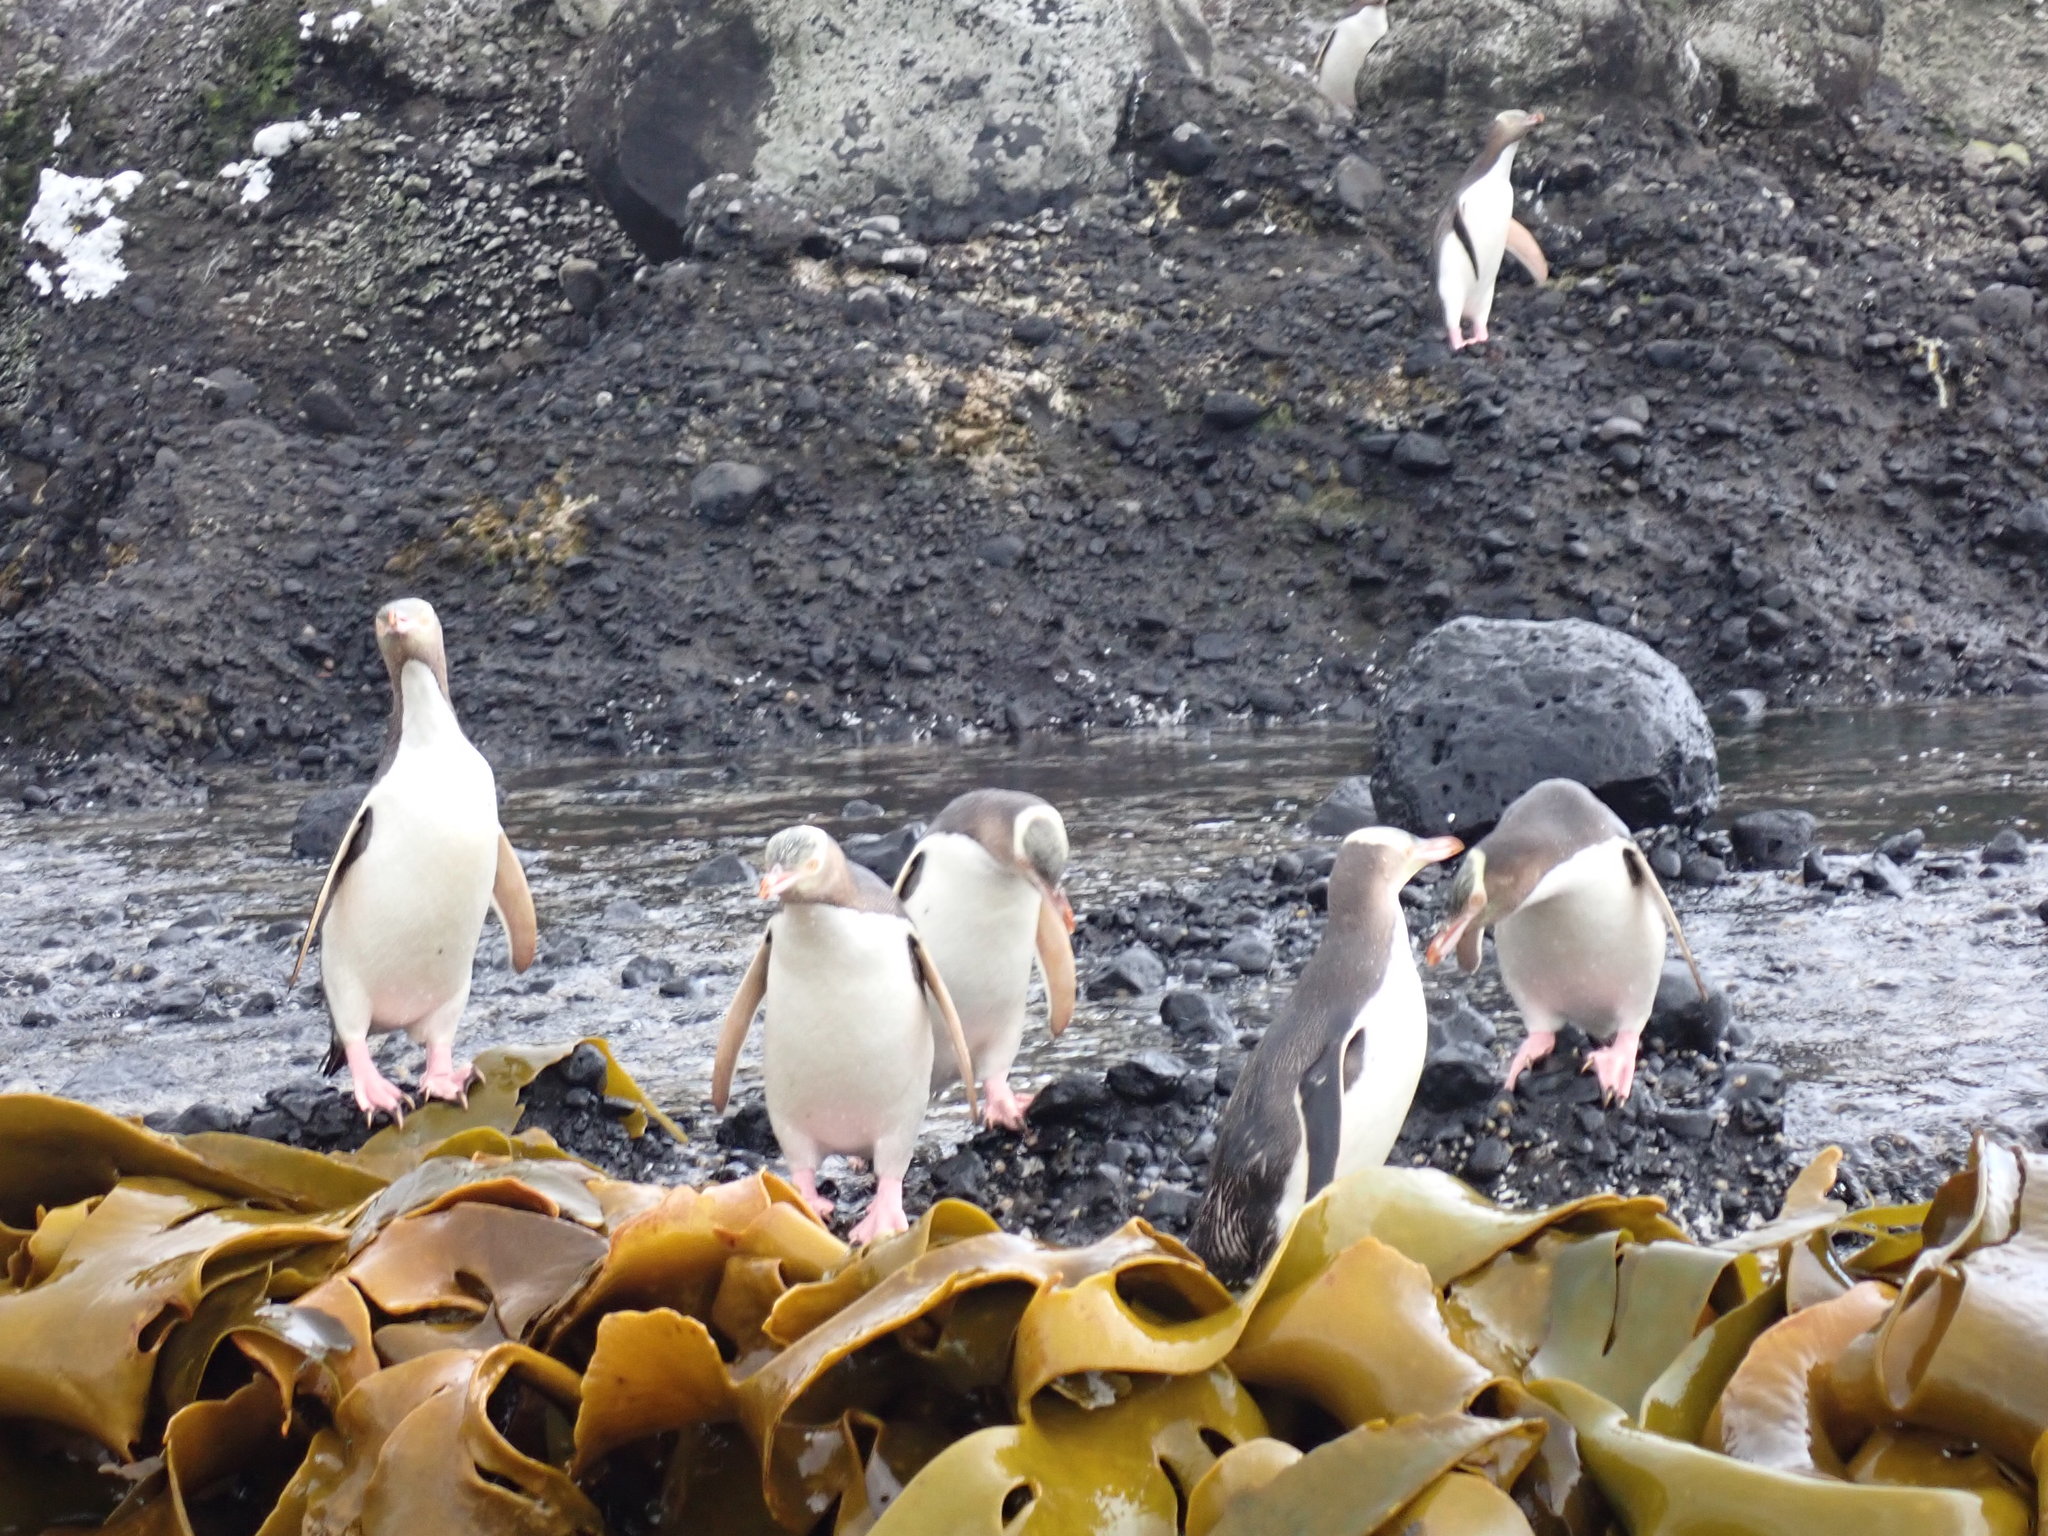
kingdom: Animalia
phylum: Chordata
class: Aves
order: Sphenisciformes
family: Spheniscidae
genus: Megadyptes
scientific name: Megadyptes antipodes
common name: Yellow-eyed penguin
